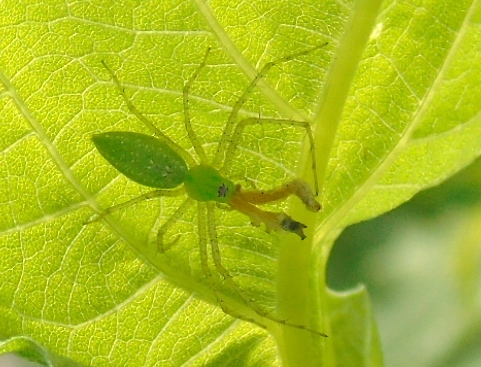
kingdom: Animalia
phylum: Arthropoda
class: Arachnida
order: Araneae
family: Oxyopidae
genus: Peucetia
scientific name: Peucetia
